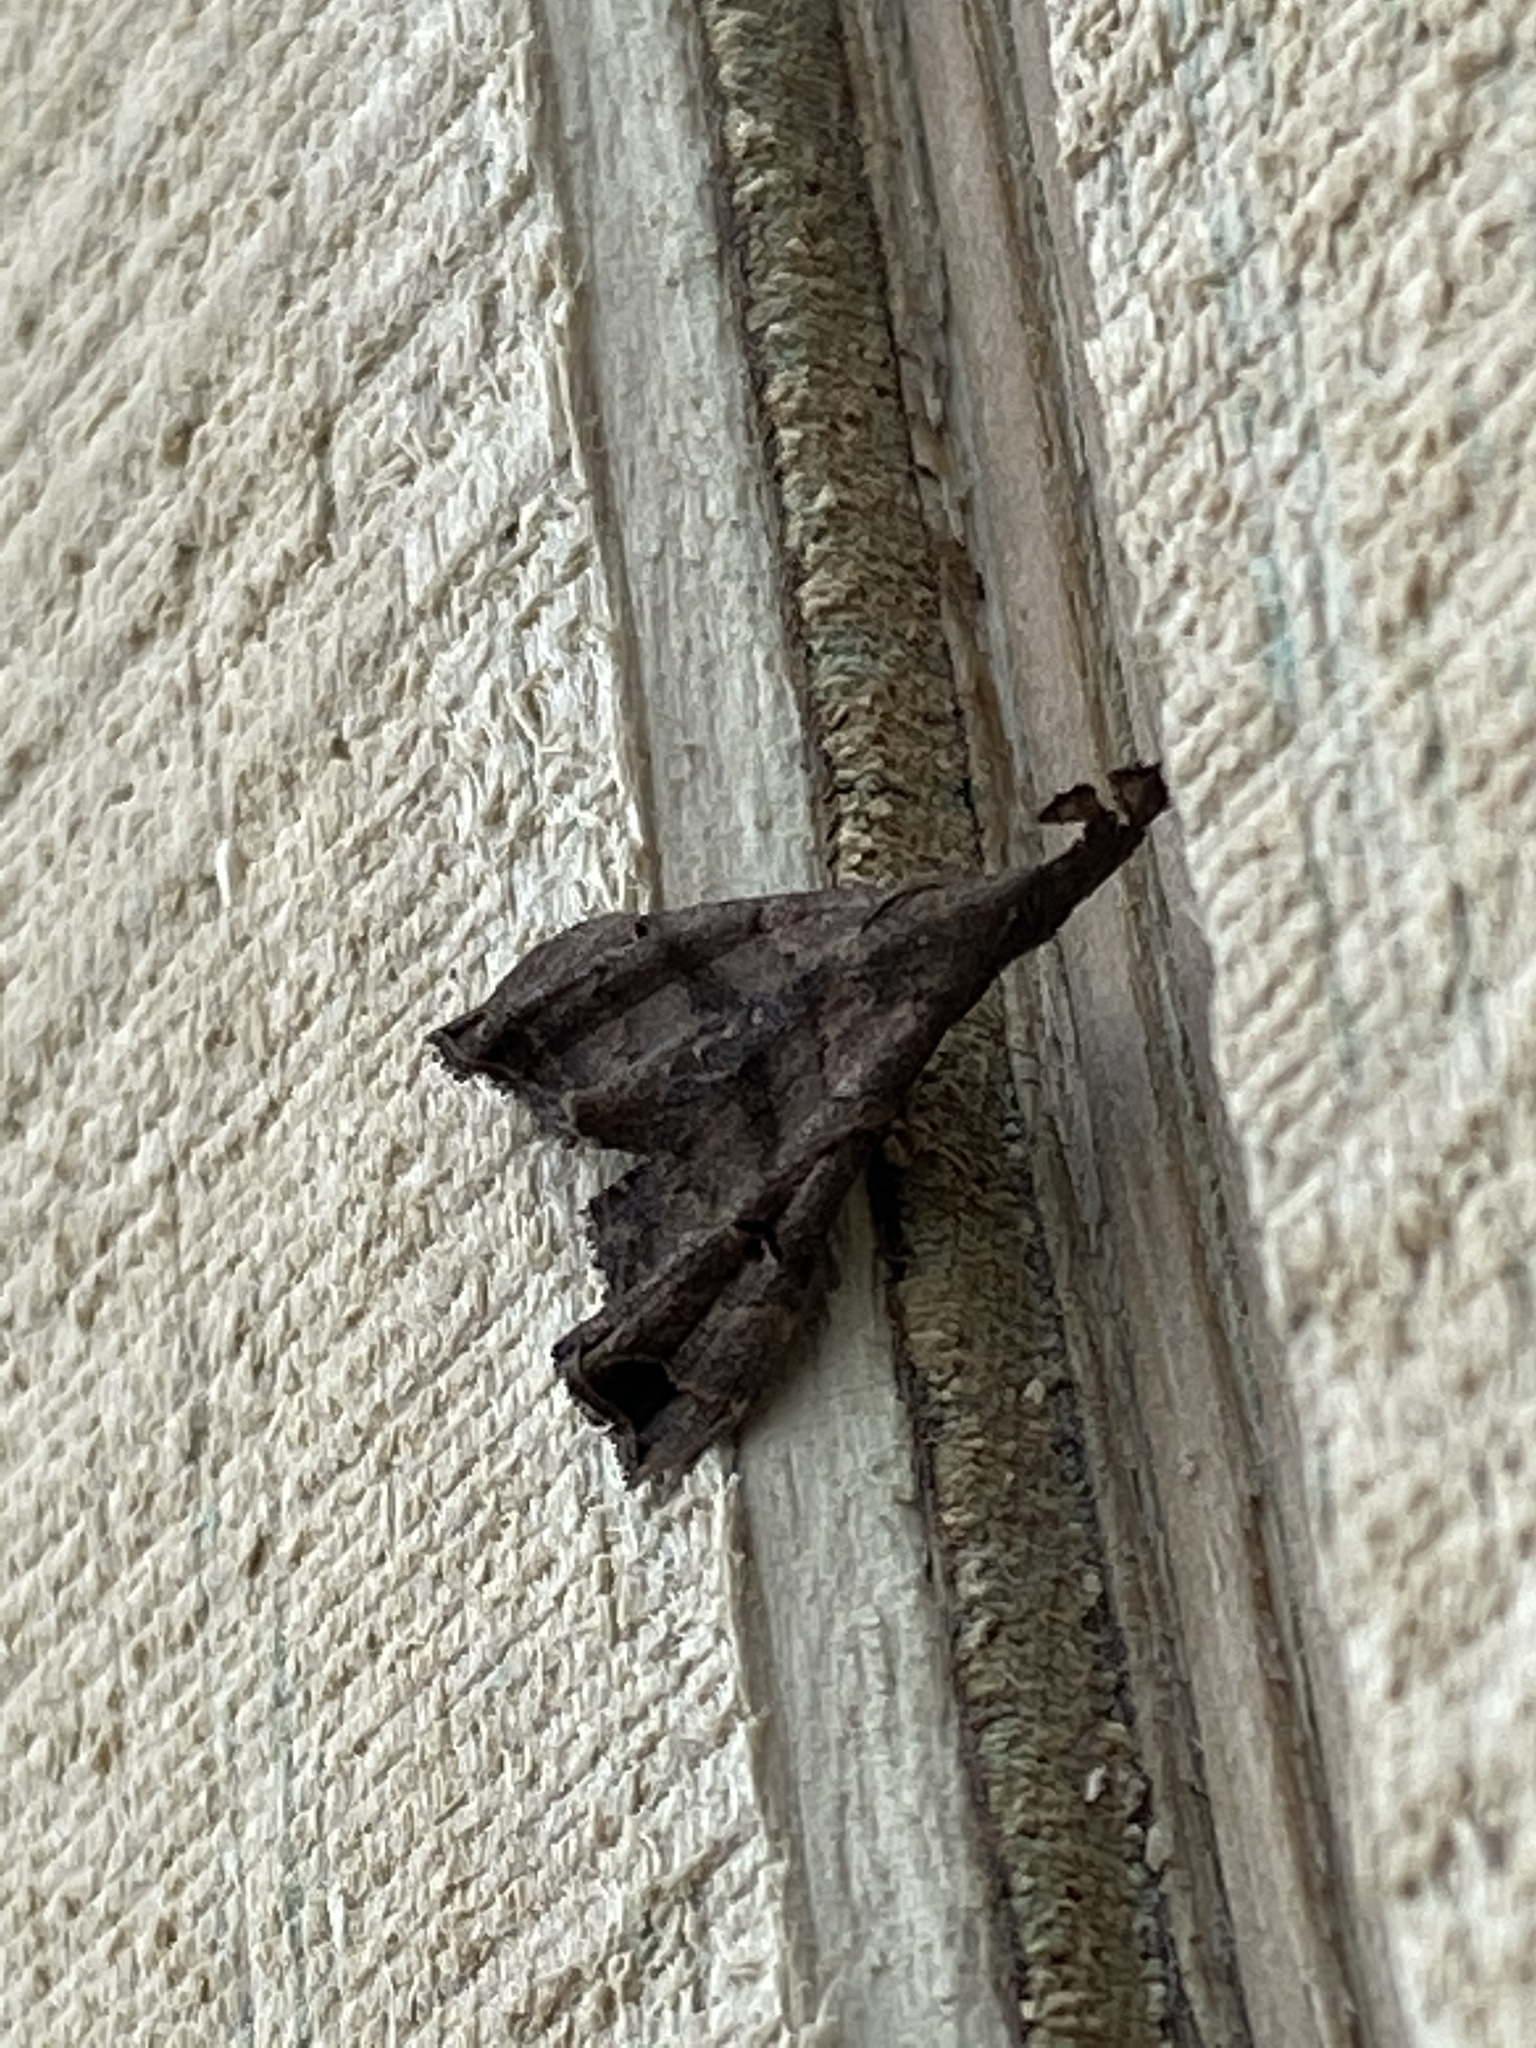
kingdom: Animalia
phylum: Arthropoda
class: Insecta
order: Lepidoptera
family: Erebidae
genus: Palthis
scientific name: Palthis asopialis
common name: Faint-spotted palthis moth
